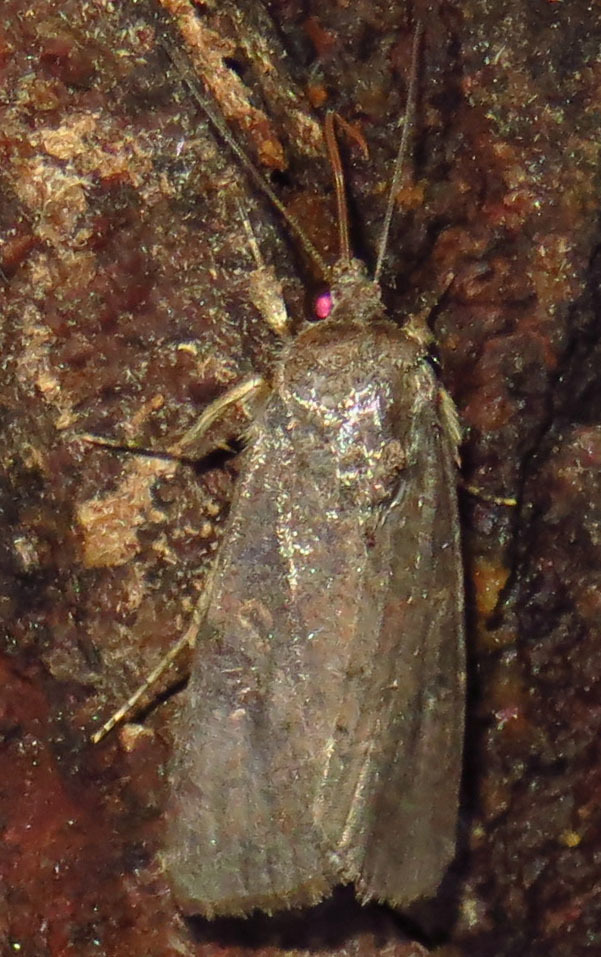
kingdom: Animalia
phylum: Arthropoda
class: Insecta
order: Lepidoptera
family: Noctuidae
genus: Spodoptera
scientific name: Spodoptera frugiperda
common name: Fall armyworm
